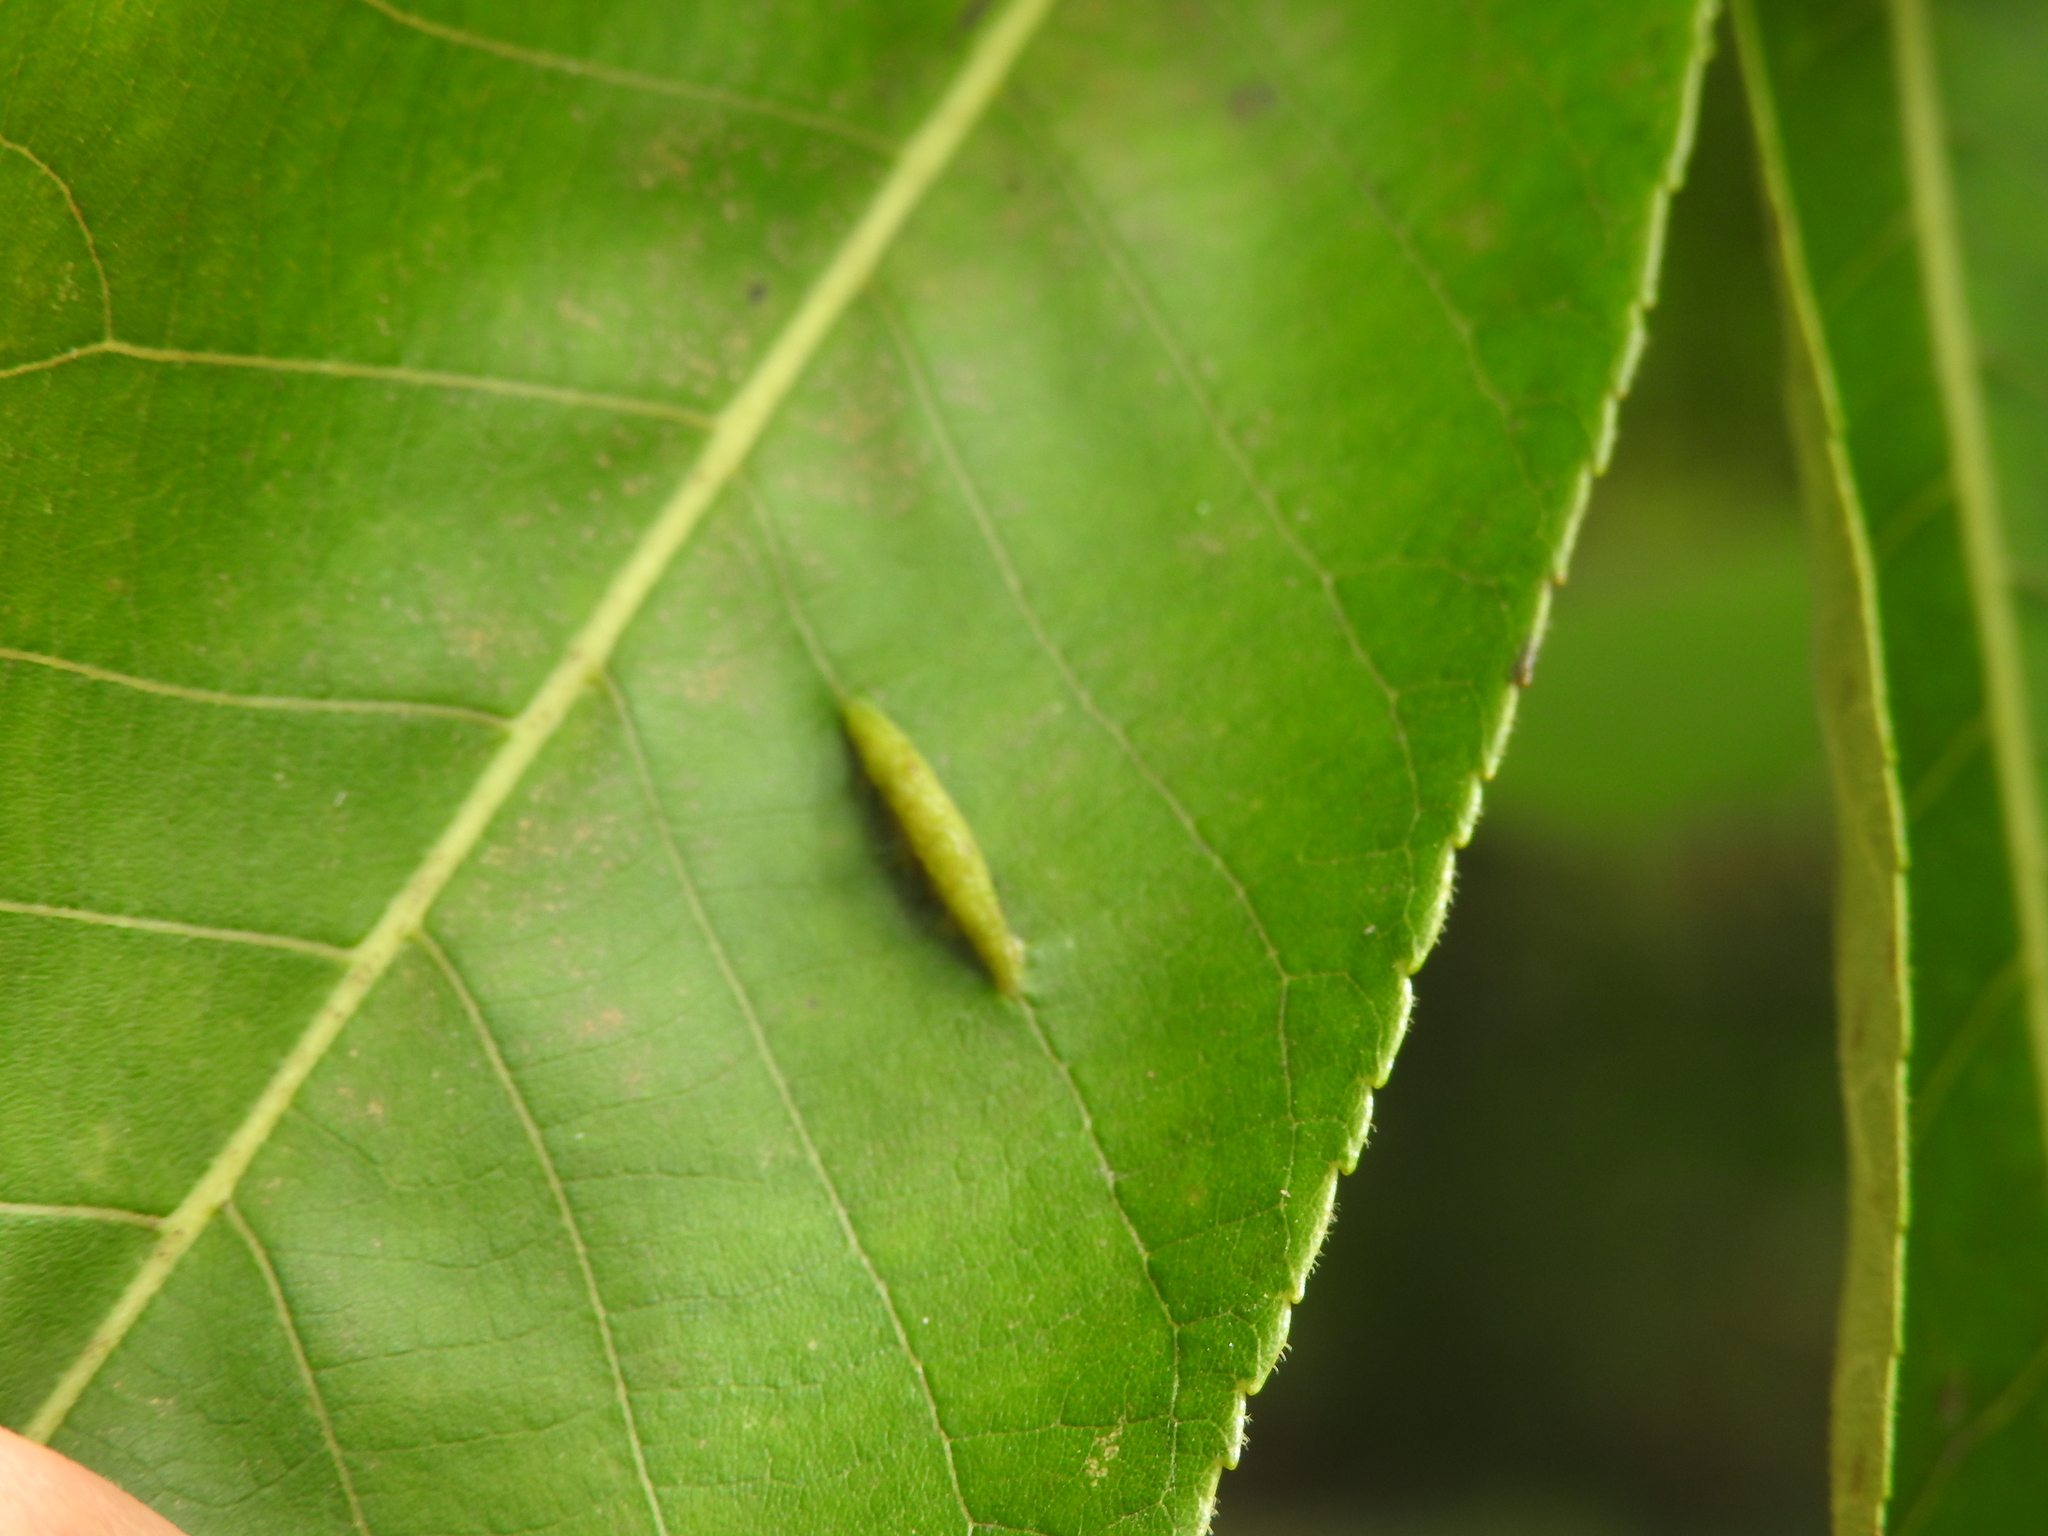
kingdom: Animalia
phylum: Arthropoda
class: Insecta
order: Hemiptera
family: Phylloxeridae
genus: Phylloxera
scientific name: Phylloxera caryaevenae
